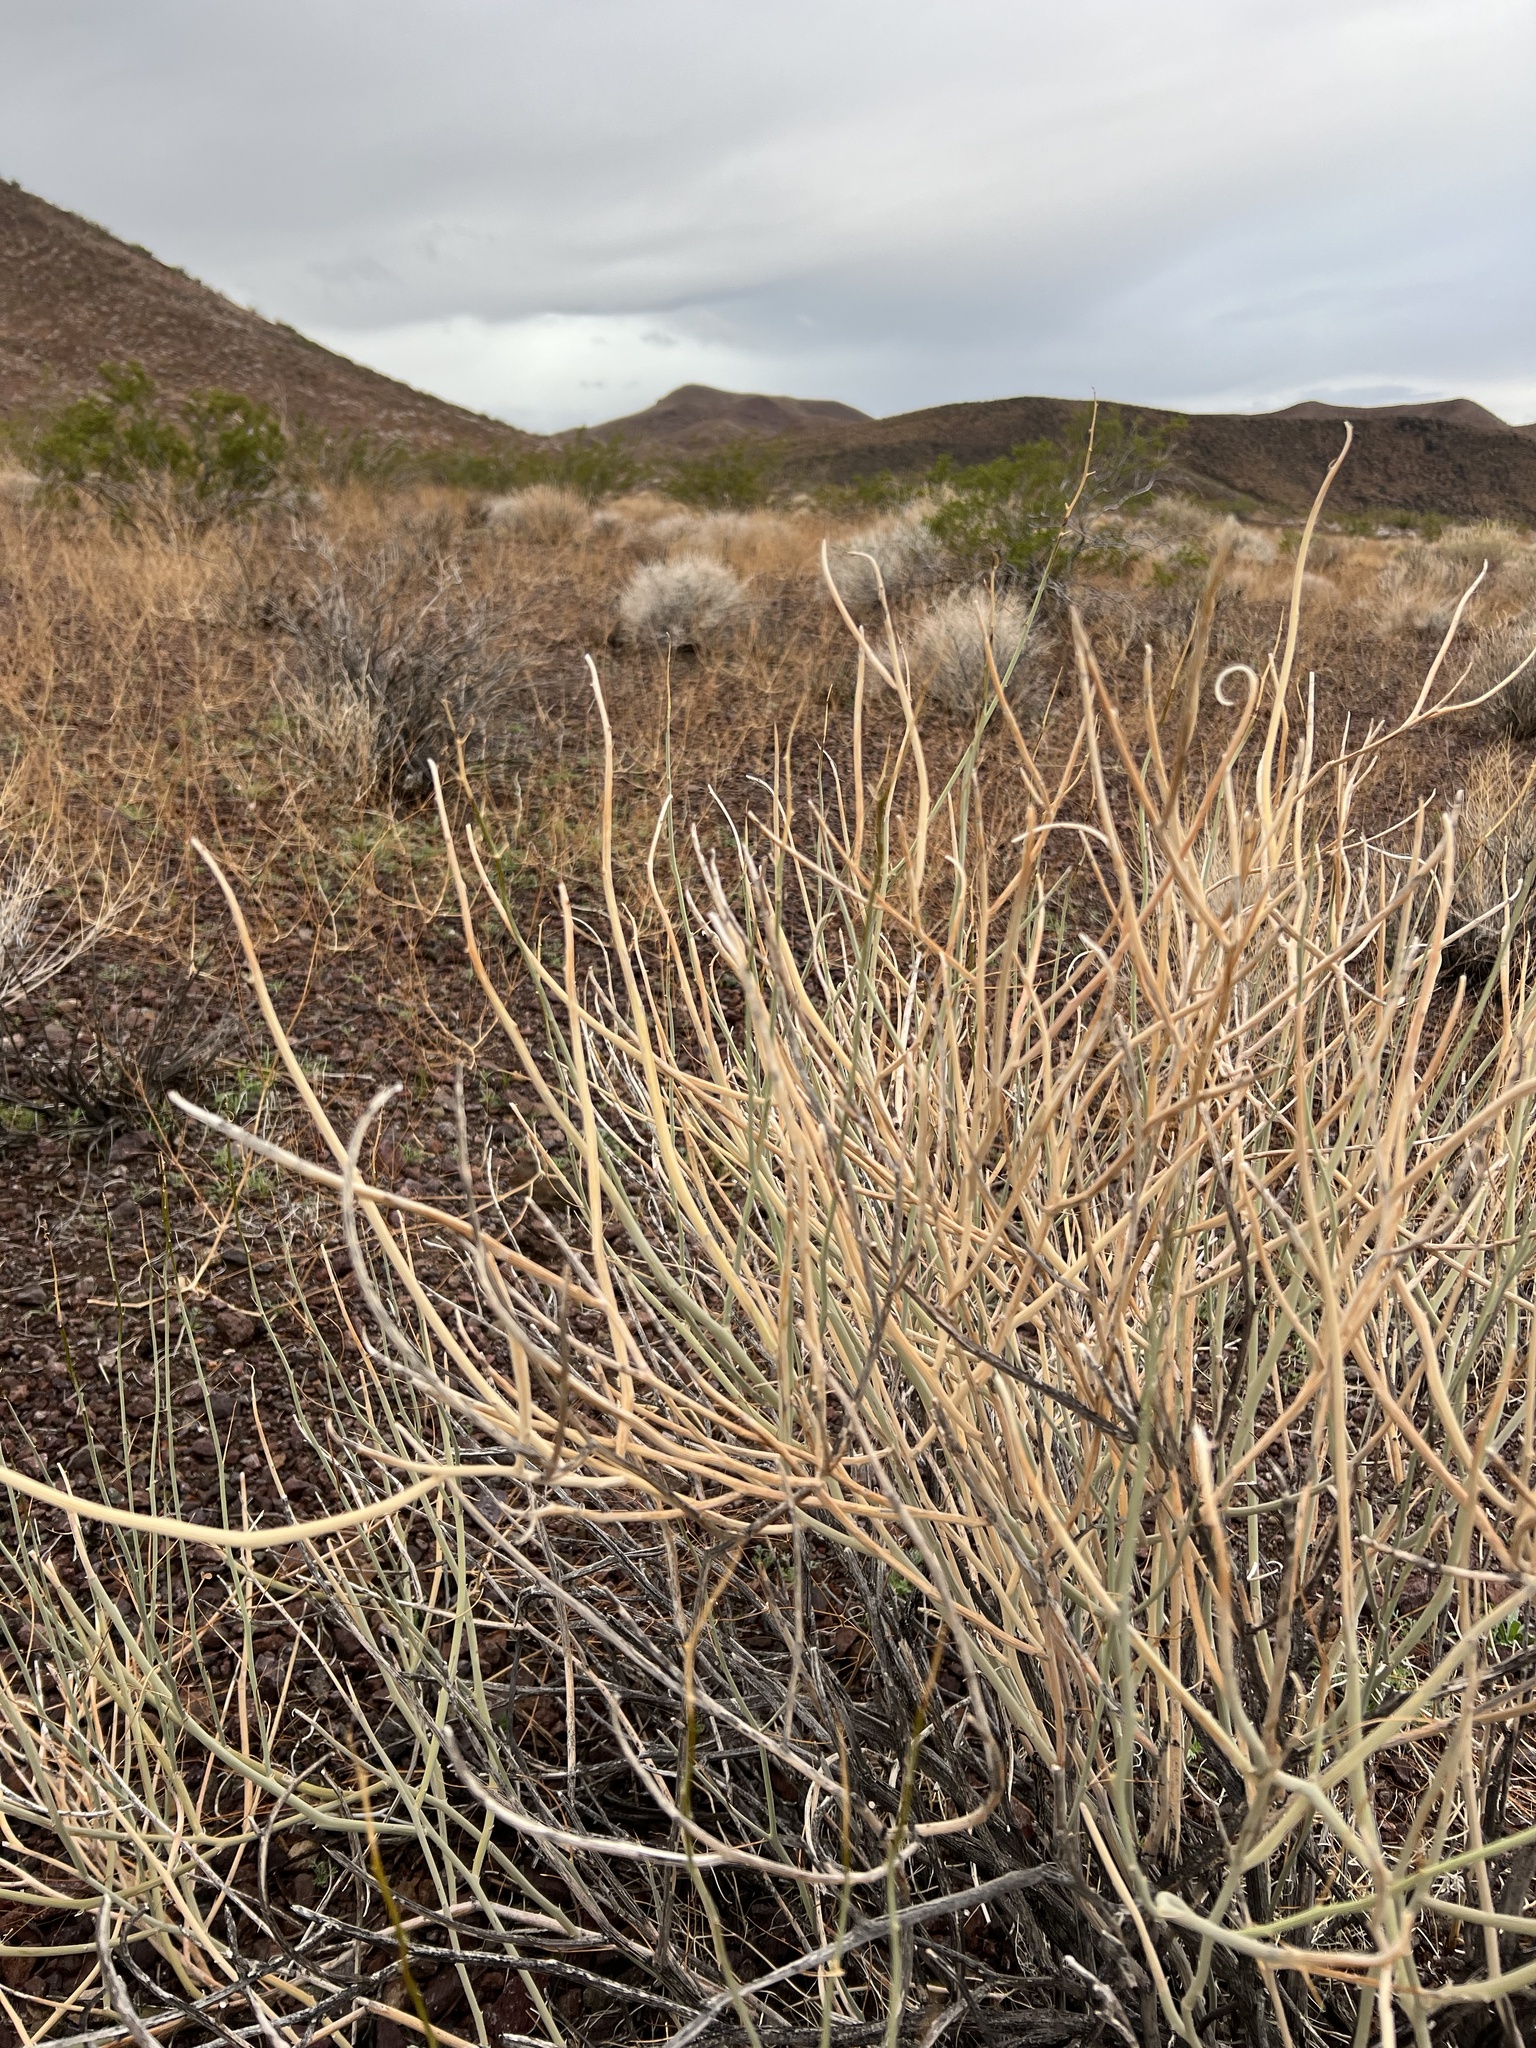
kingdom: Plantae
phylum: Tracheophyta
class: Magnoliopsida
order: Fabales
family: Fabaceae
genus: Senna
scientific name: Senna armata
